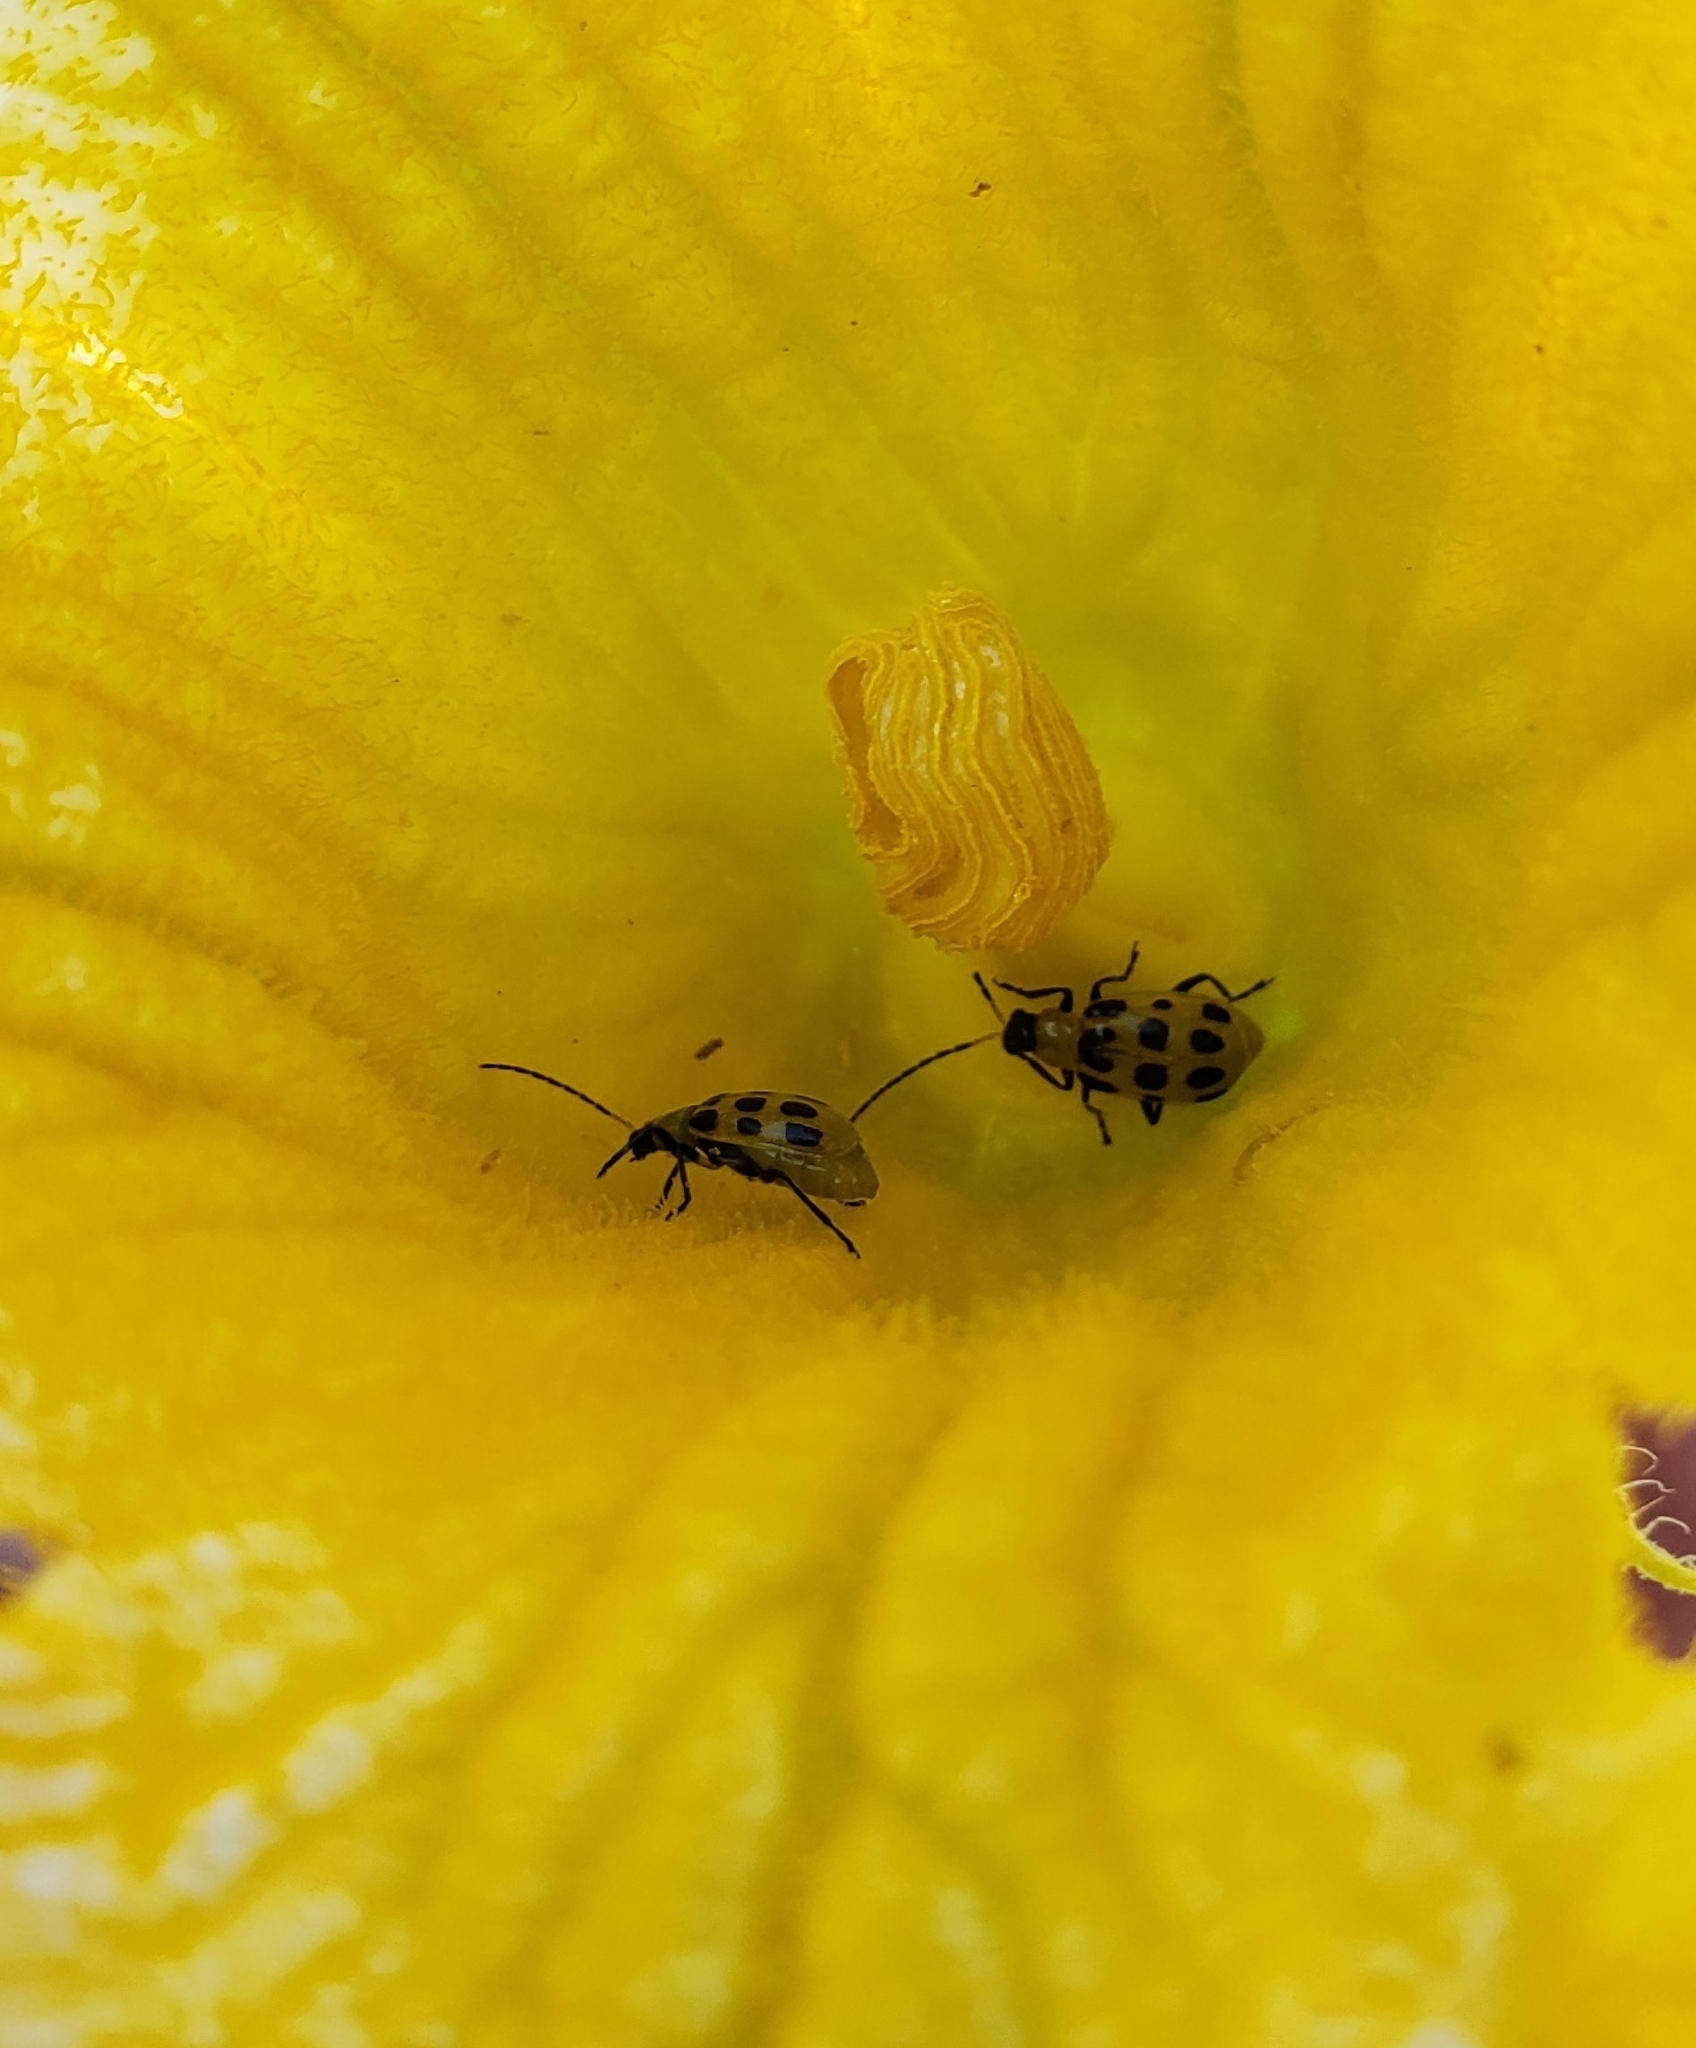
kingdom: Animalia
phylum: Arthropoda
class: Insecta
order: Coleoptera
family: Chrysomelidae
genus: Diabrotica
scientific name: Diabrotica undecimpunctata
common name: Spotted cucumber beetle
